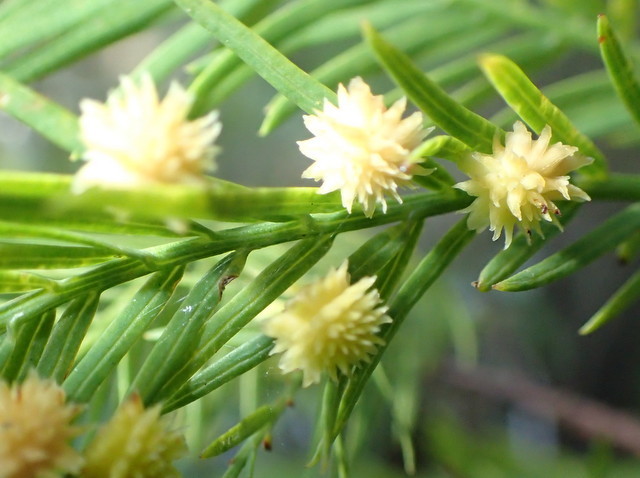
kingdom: Animalia
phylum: Arthropoda
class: Insecta
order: Diptera
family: Cecidomyiidae
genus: Taxodiomyia
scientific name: Taxodiomyia
